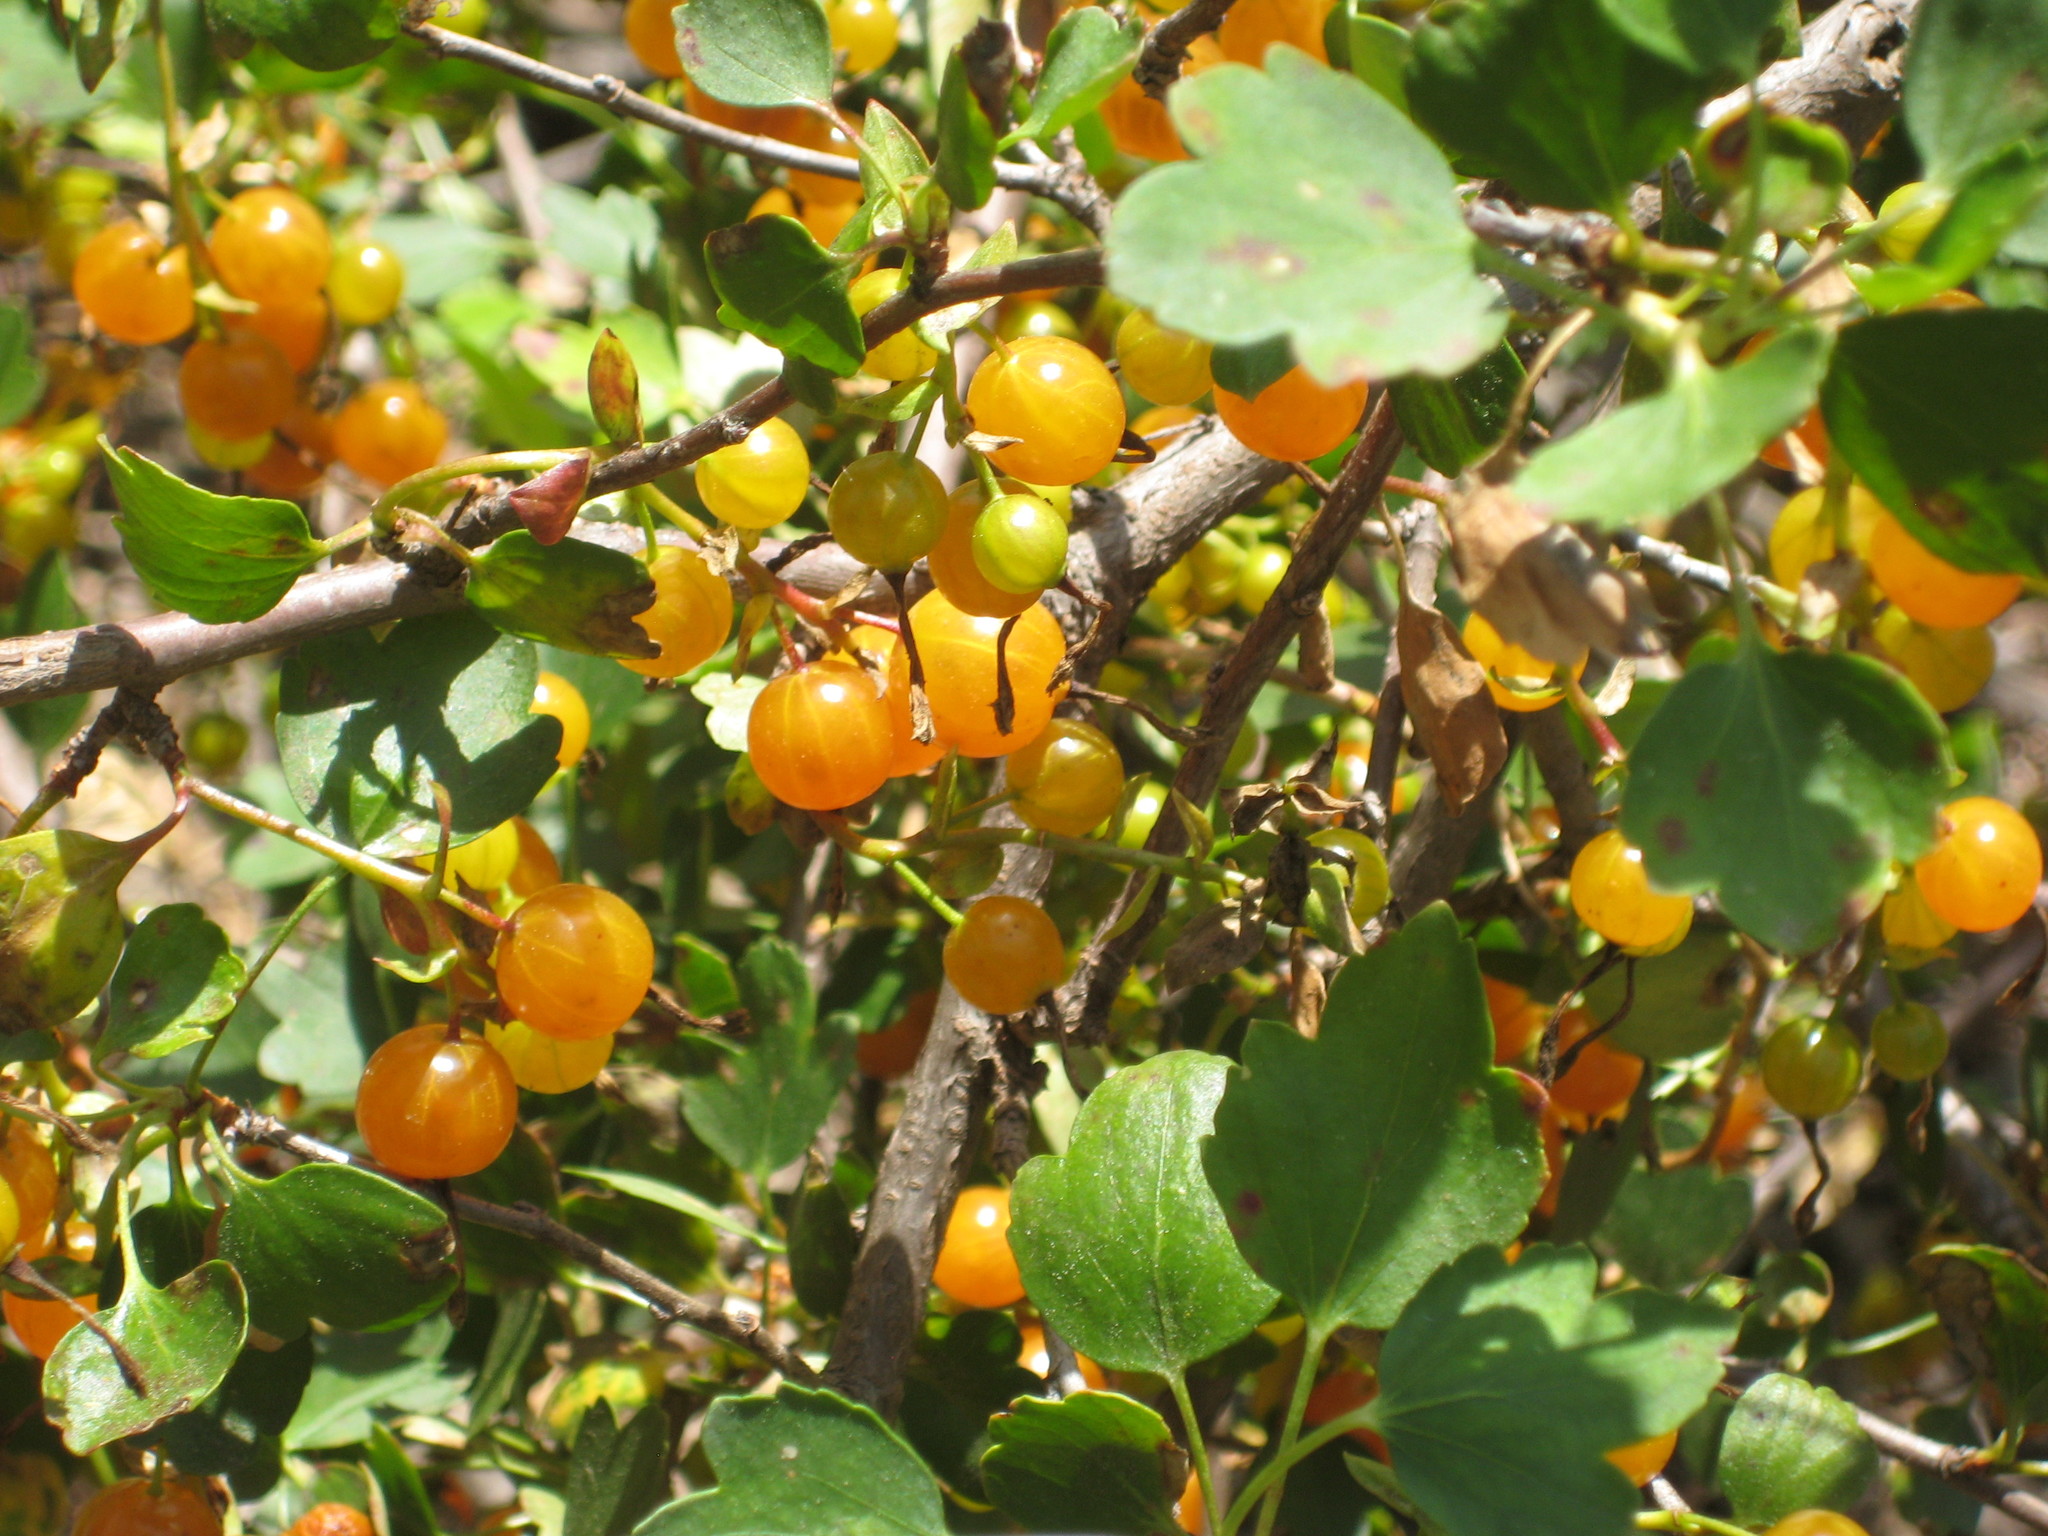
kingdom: Plantae
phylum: Tracheophyta
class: Magnoliopsida
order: Saxifragales
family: Grossulariaceae
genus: Ribes
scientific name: Ribes aureum
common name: Golden currant
